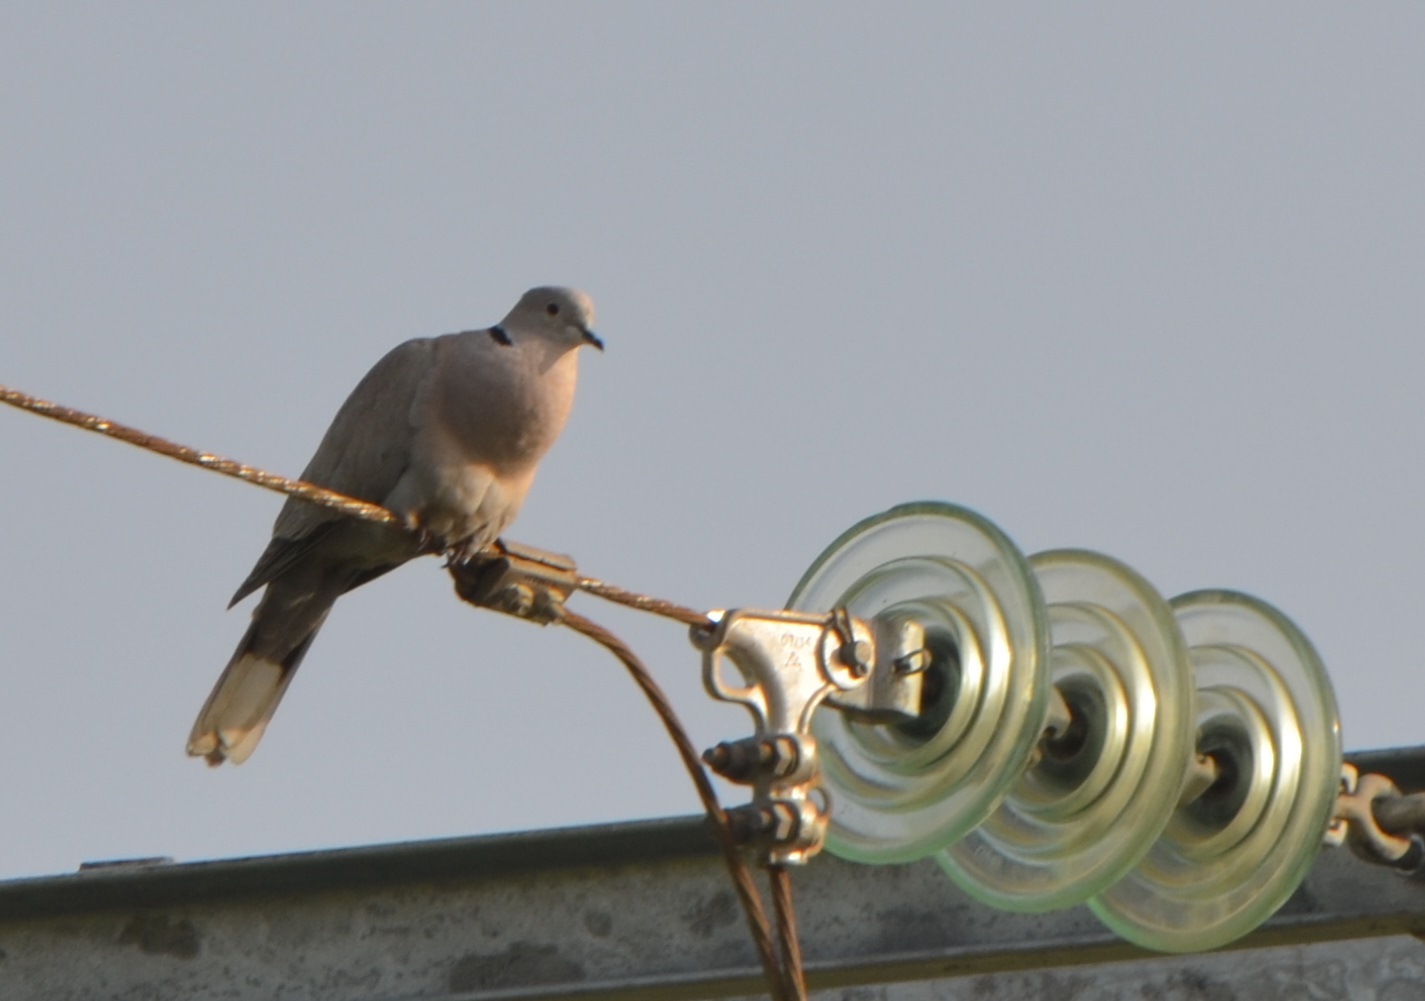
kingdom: Animalia
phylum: Chordata
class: Aves
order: Columbiformes
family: Columbidae
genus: Streptopelia
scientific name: Streptopelia decaocto
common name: Eurasian collared dove
